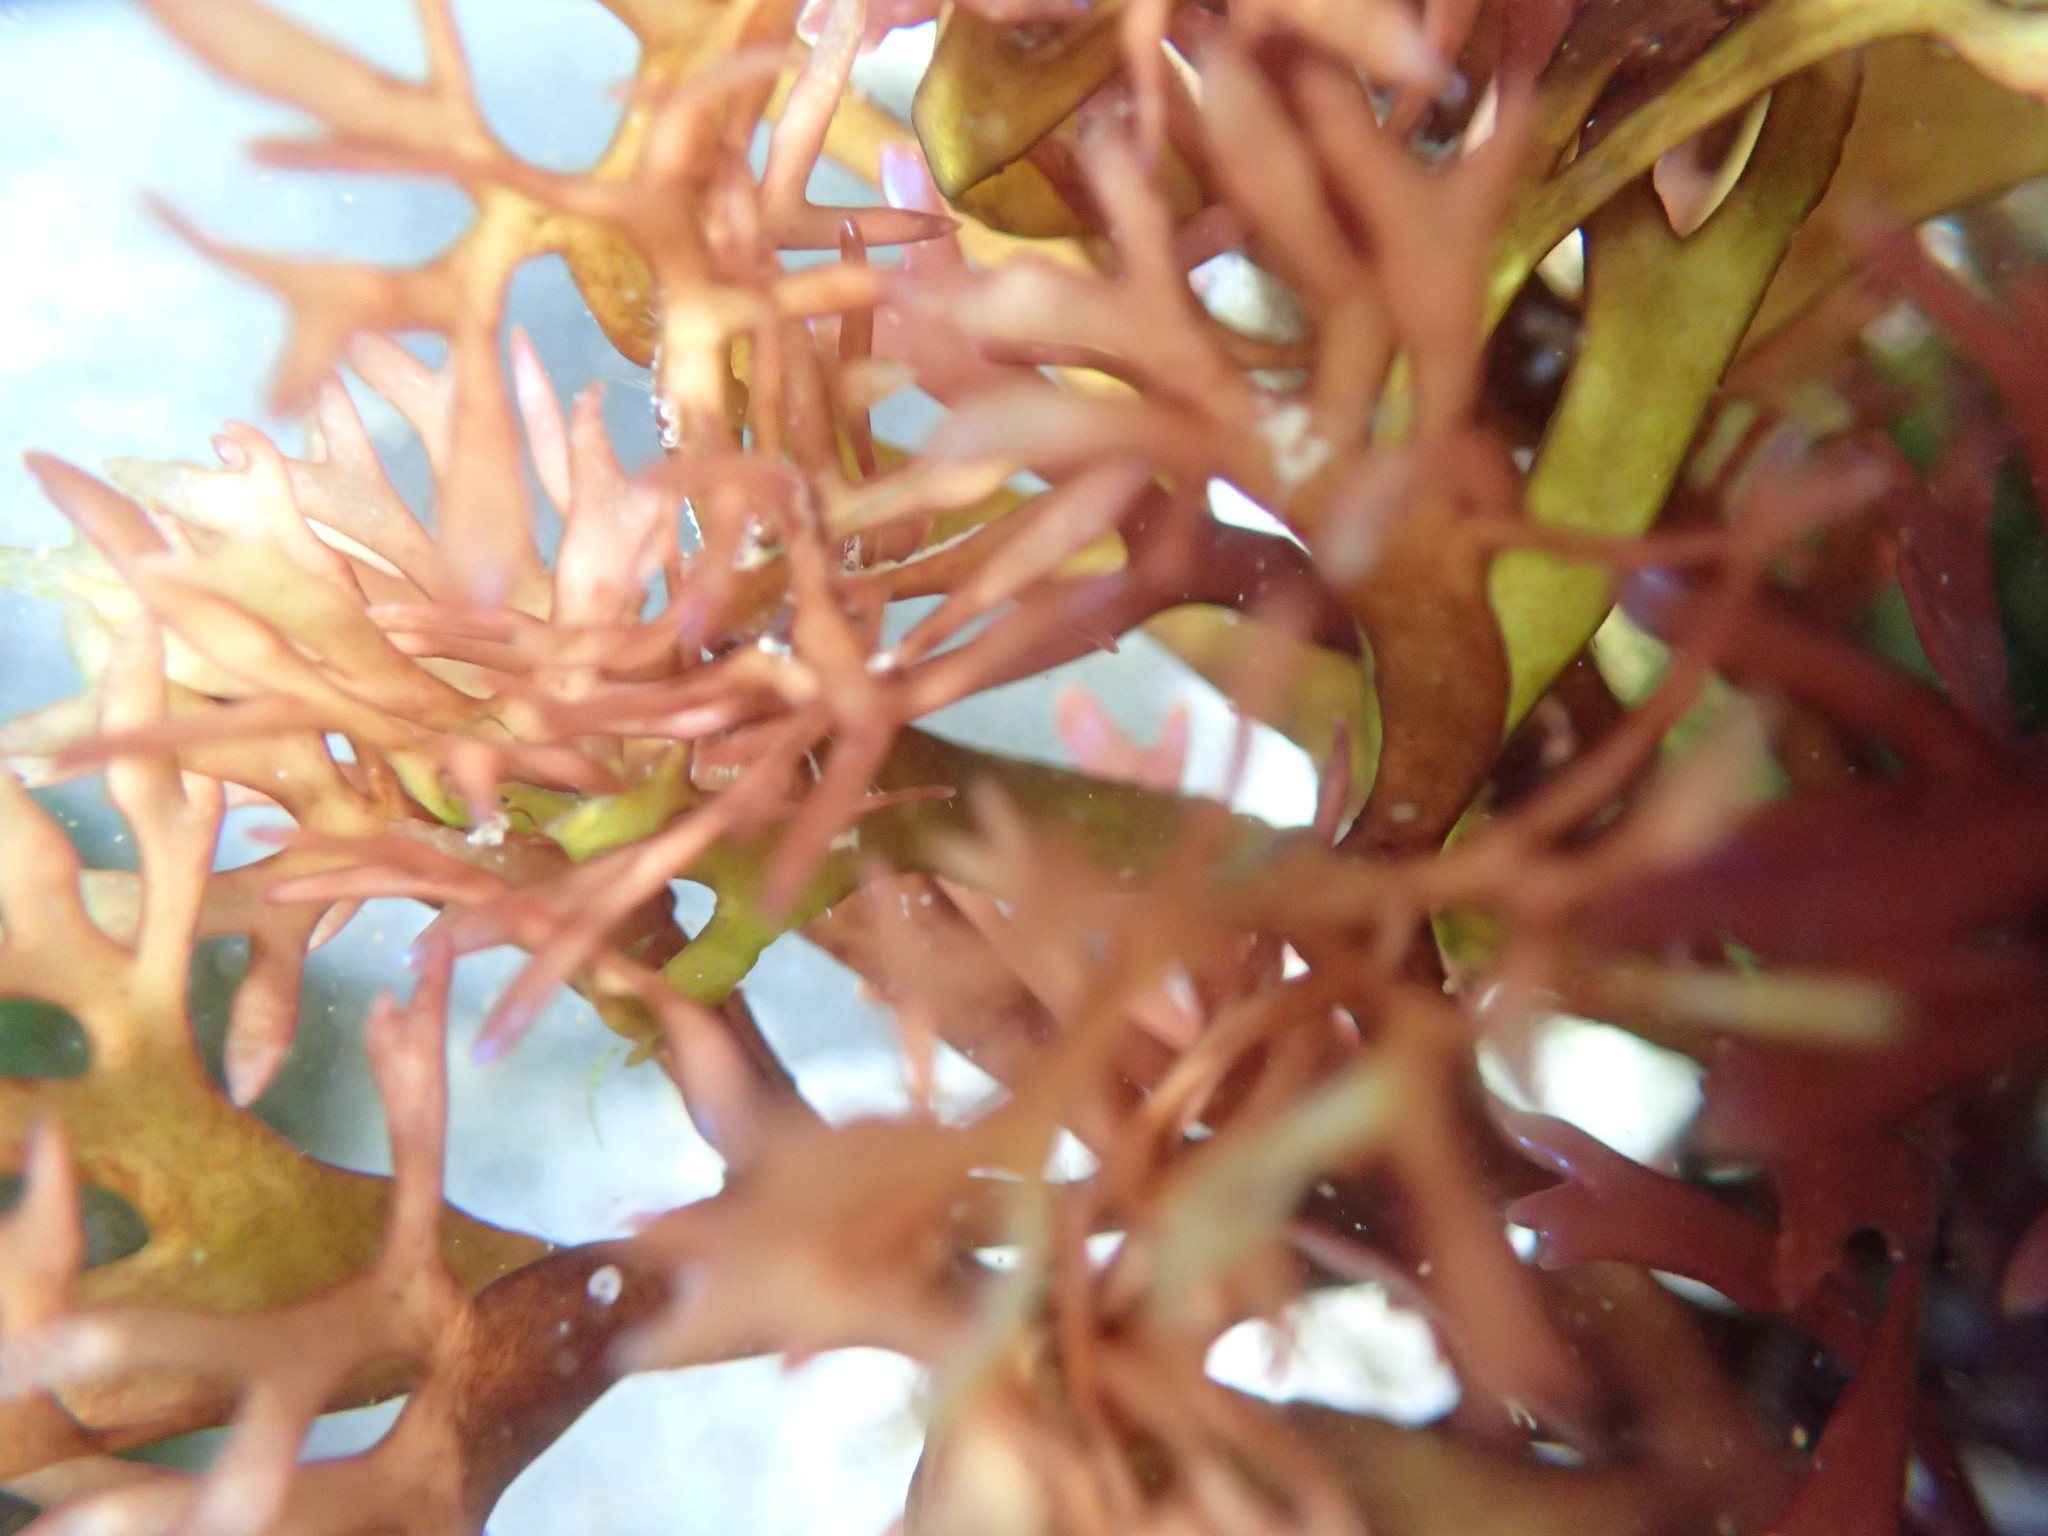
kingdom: Plantae
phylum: Rhodophyta
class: Florideophyceae
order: Gigartinales
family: Gigartinaceae
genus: Chondrus
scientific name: Chondrus crispus
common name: Carrageen
